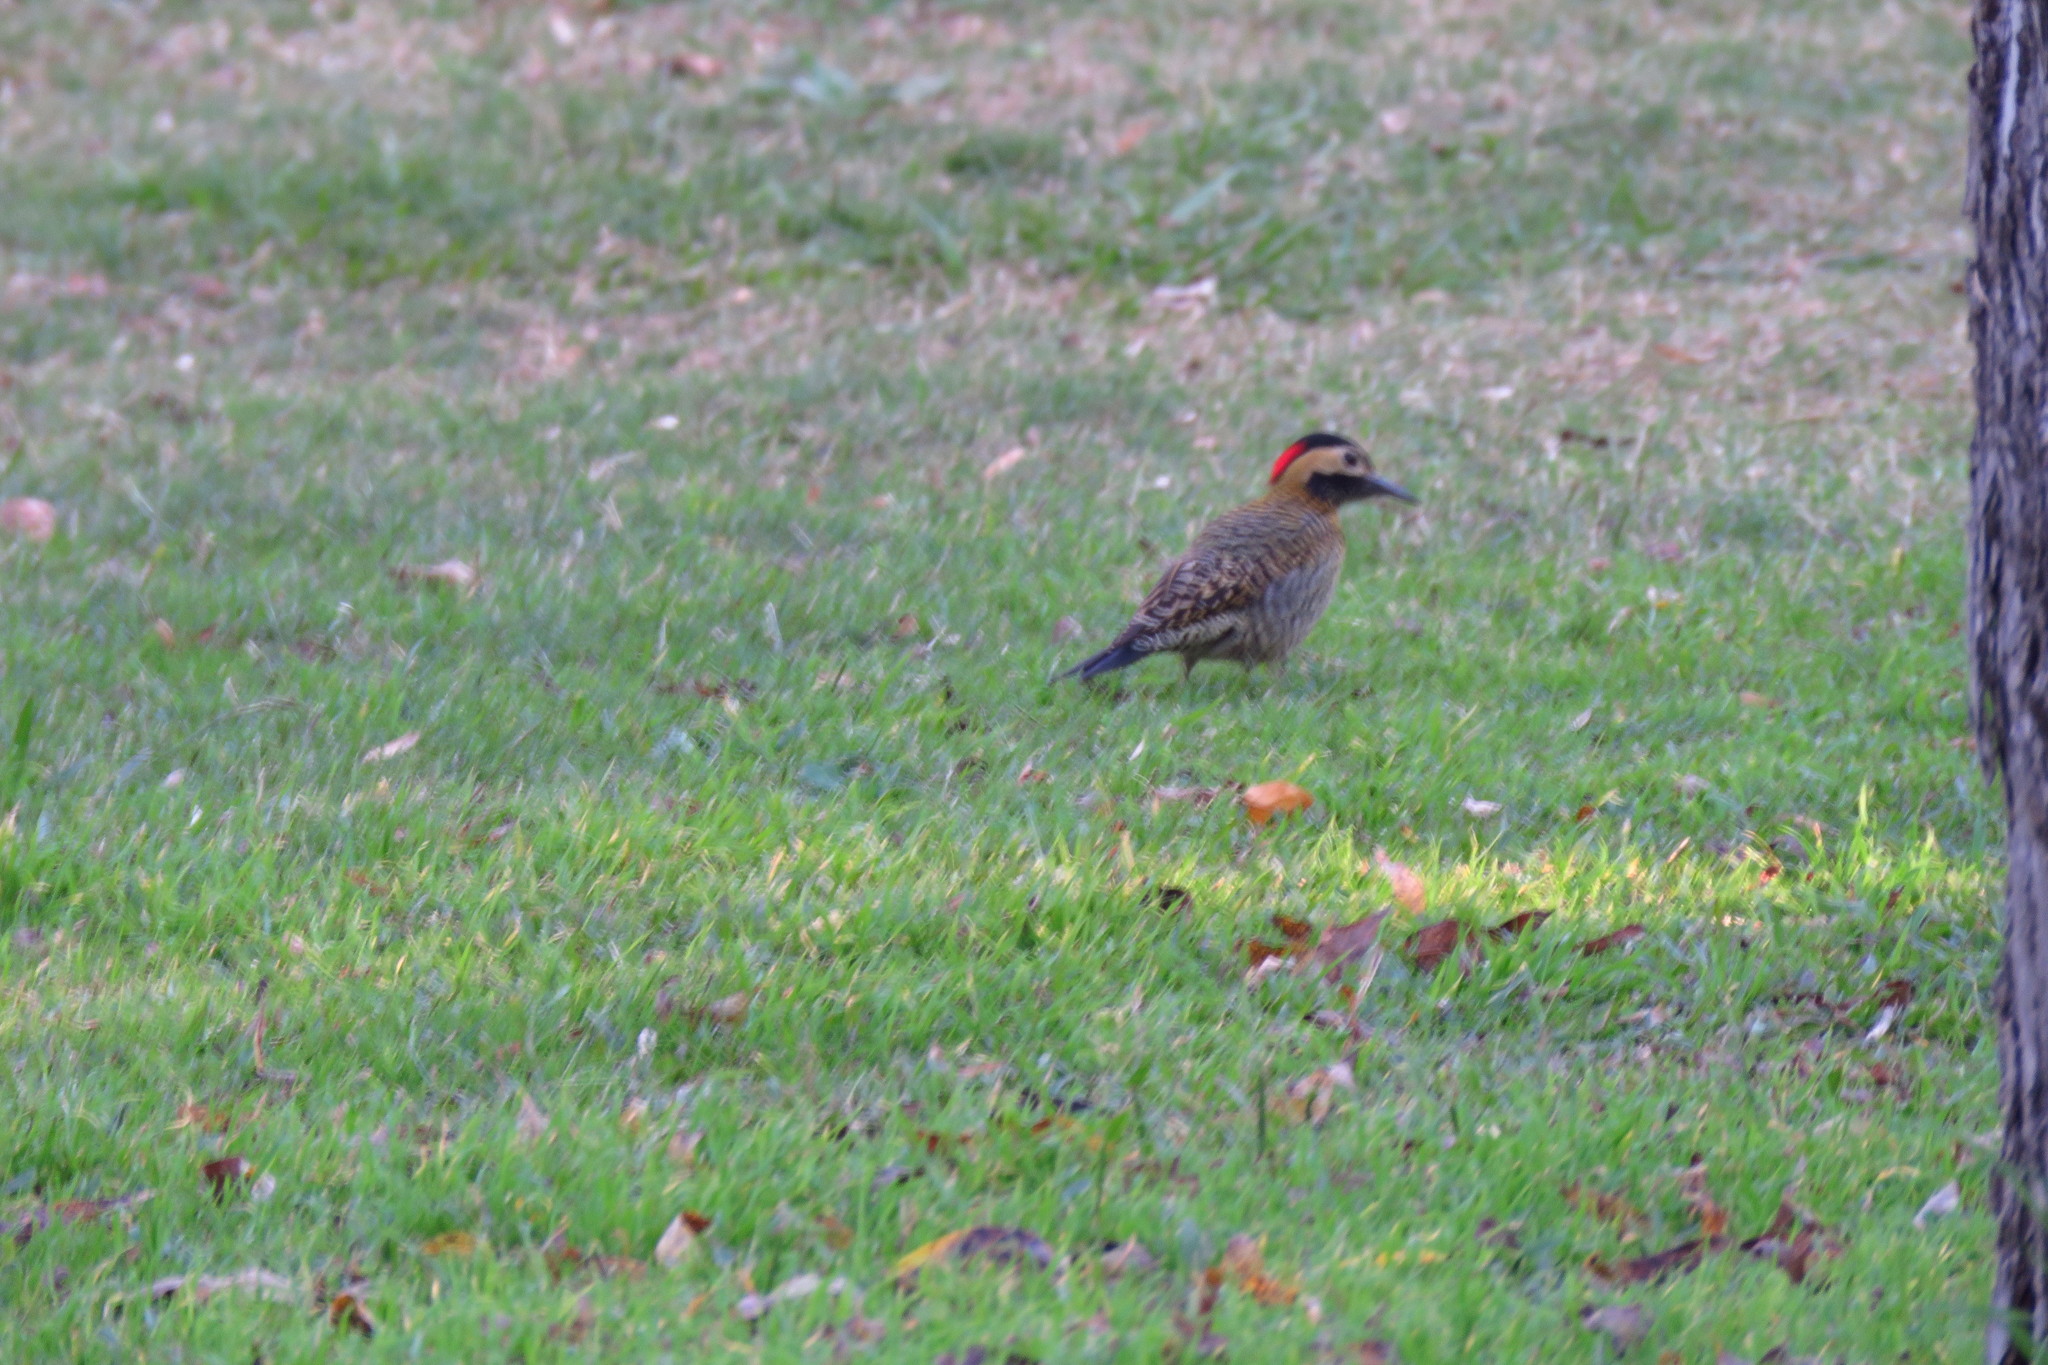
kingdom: Animalia
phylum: Chordata
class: Aves
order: Piciformes
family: Picidae
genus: Colaptes
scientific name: Colaptes melanochloros
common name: Green-barred woodpecker
